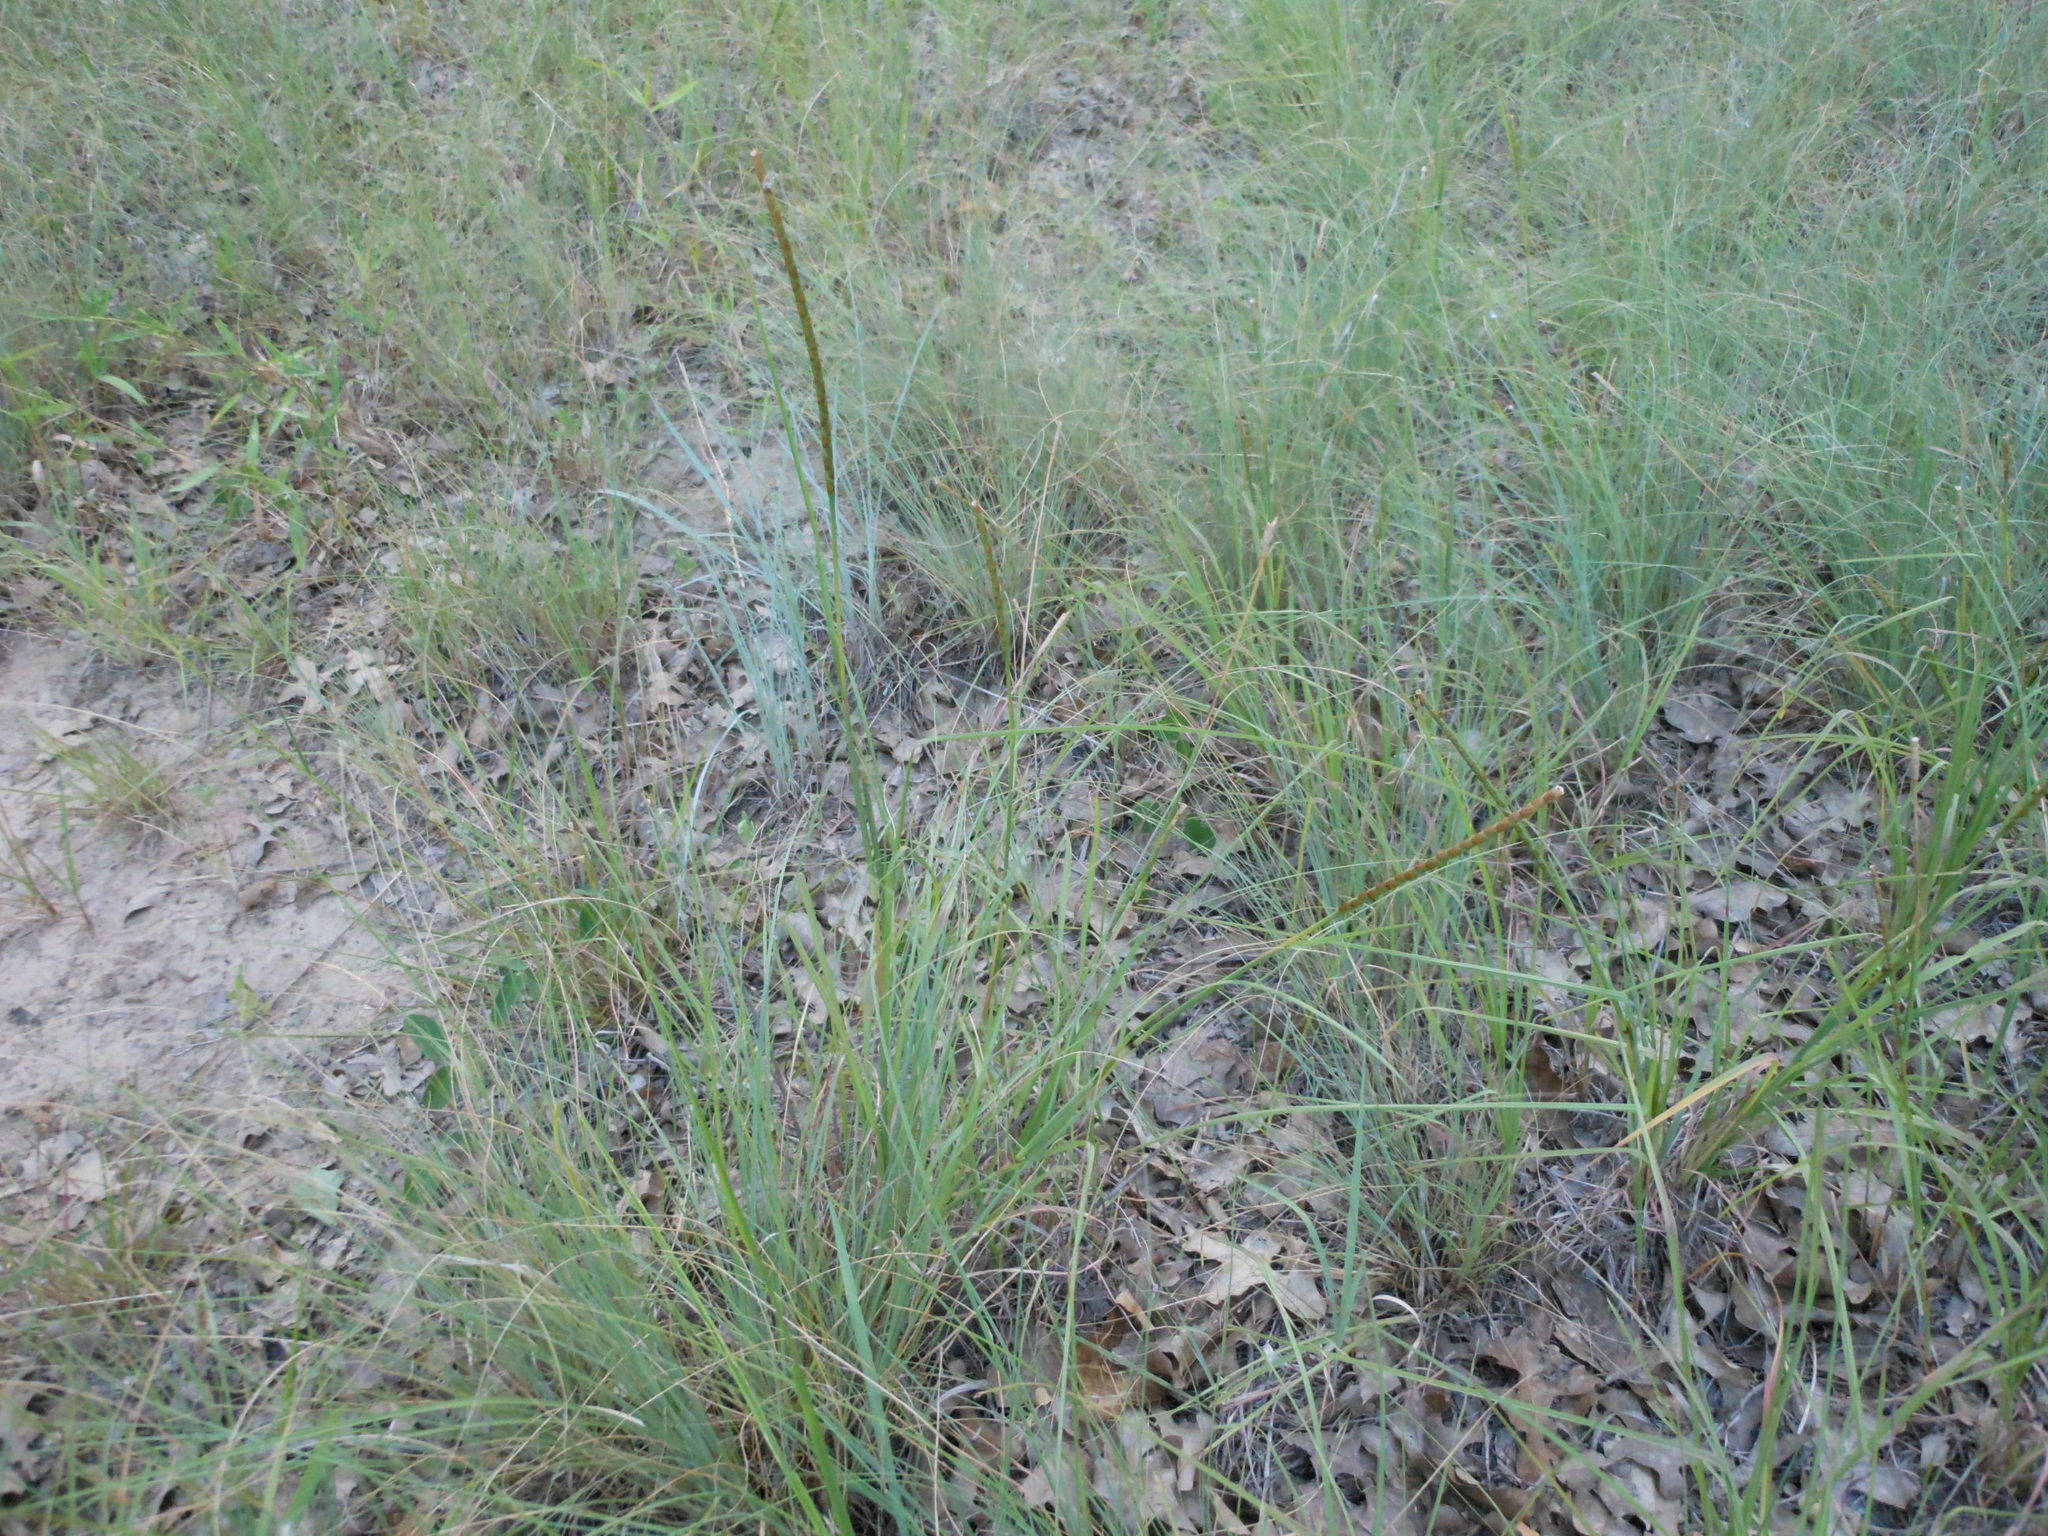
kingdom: Plantae
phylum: Tracheophyta
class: Liliopsida
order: Poales
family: Poaceae
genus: Rottboellia
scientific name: Rottboellia campestris
